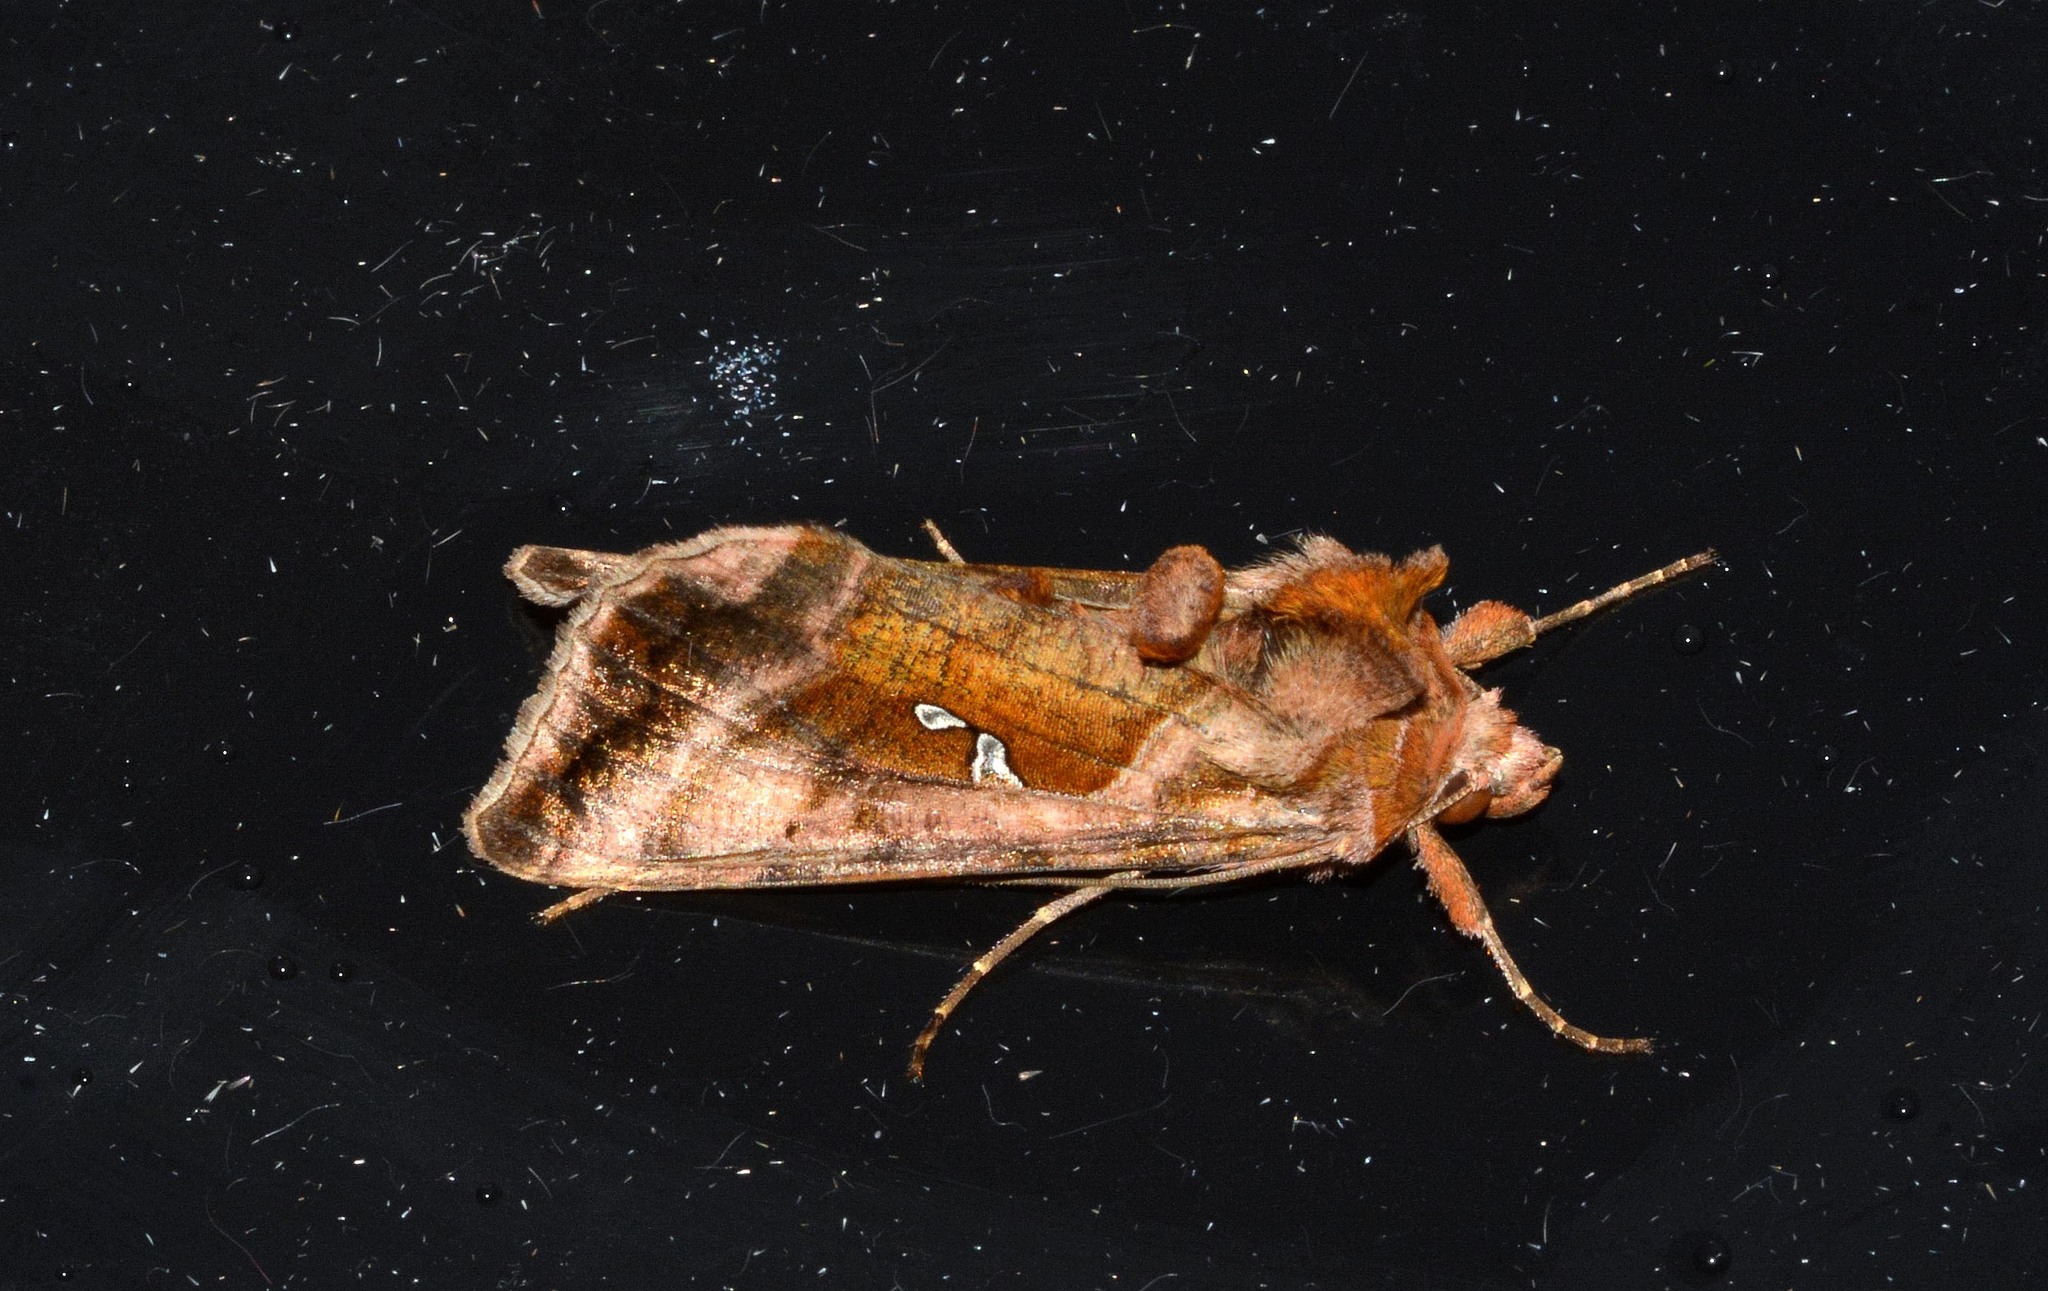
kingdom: Animalia
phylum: Arthropoda
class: Insecta
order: Lepidoptera
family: Noctuidae
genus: Autographa
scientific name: Autographa jota
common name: Plain golden y
